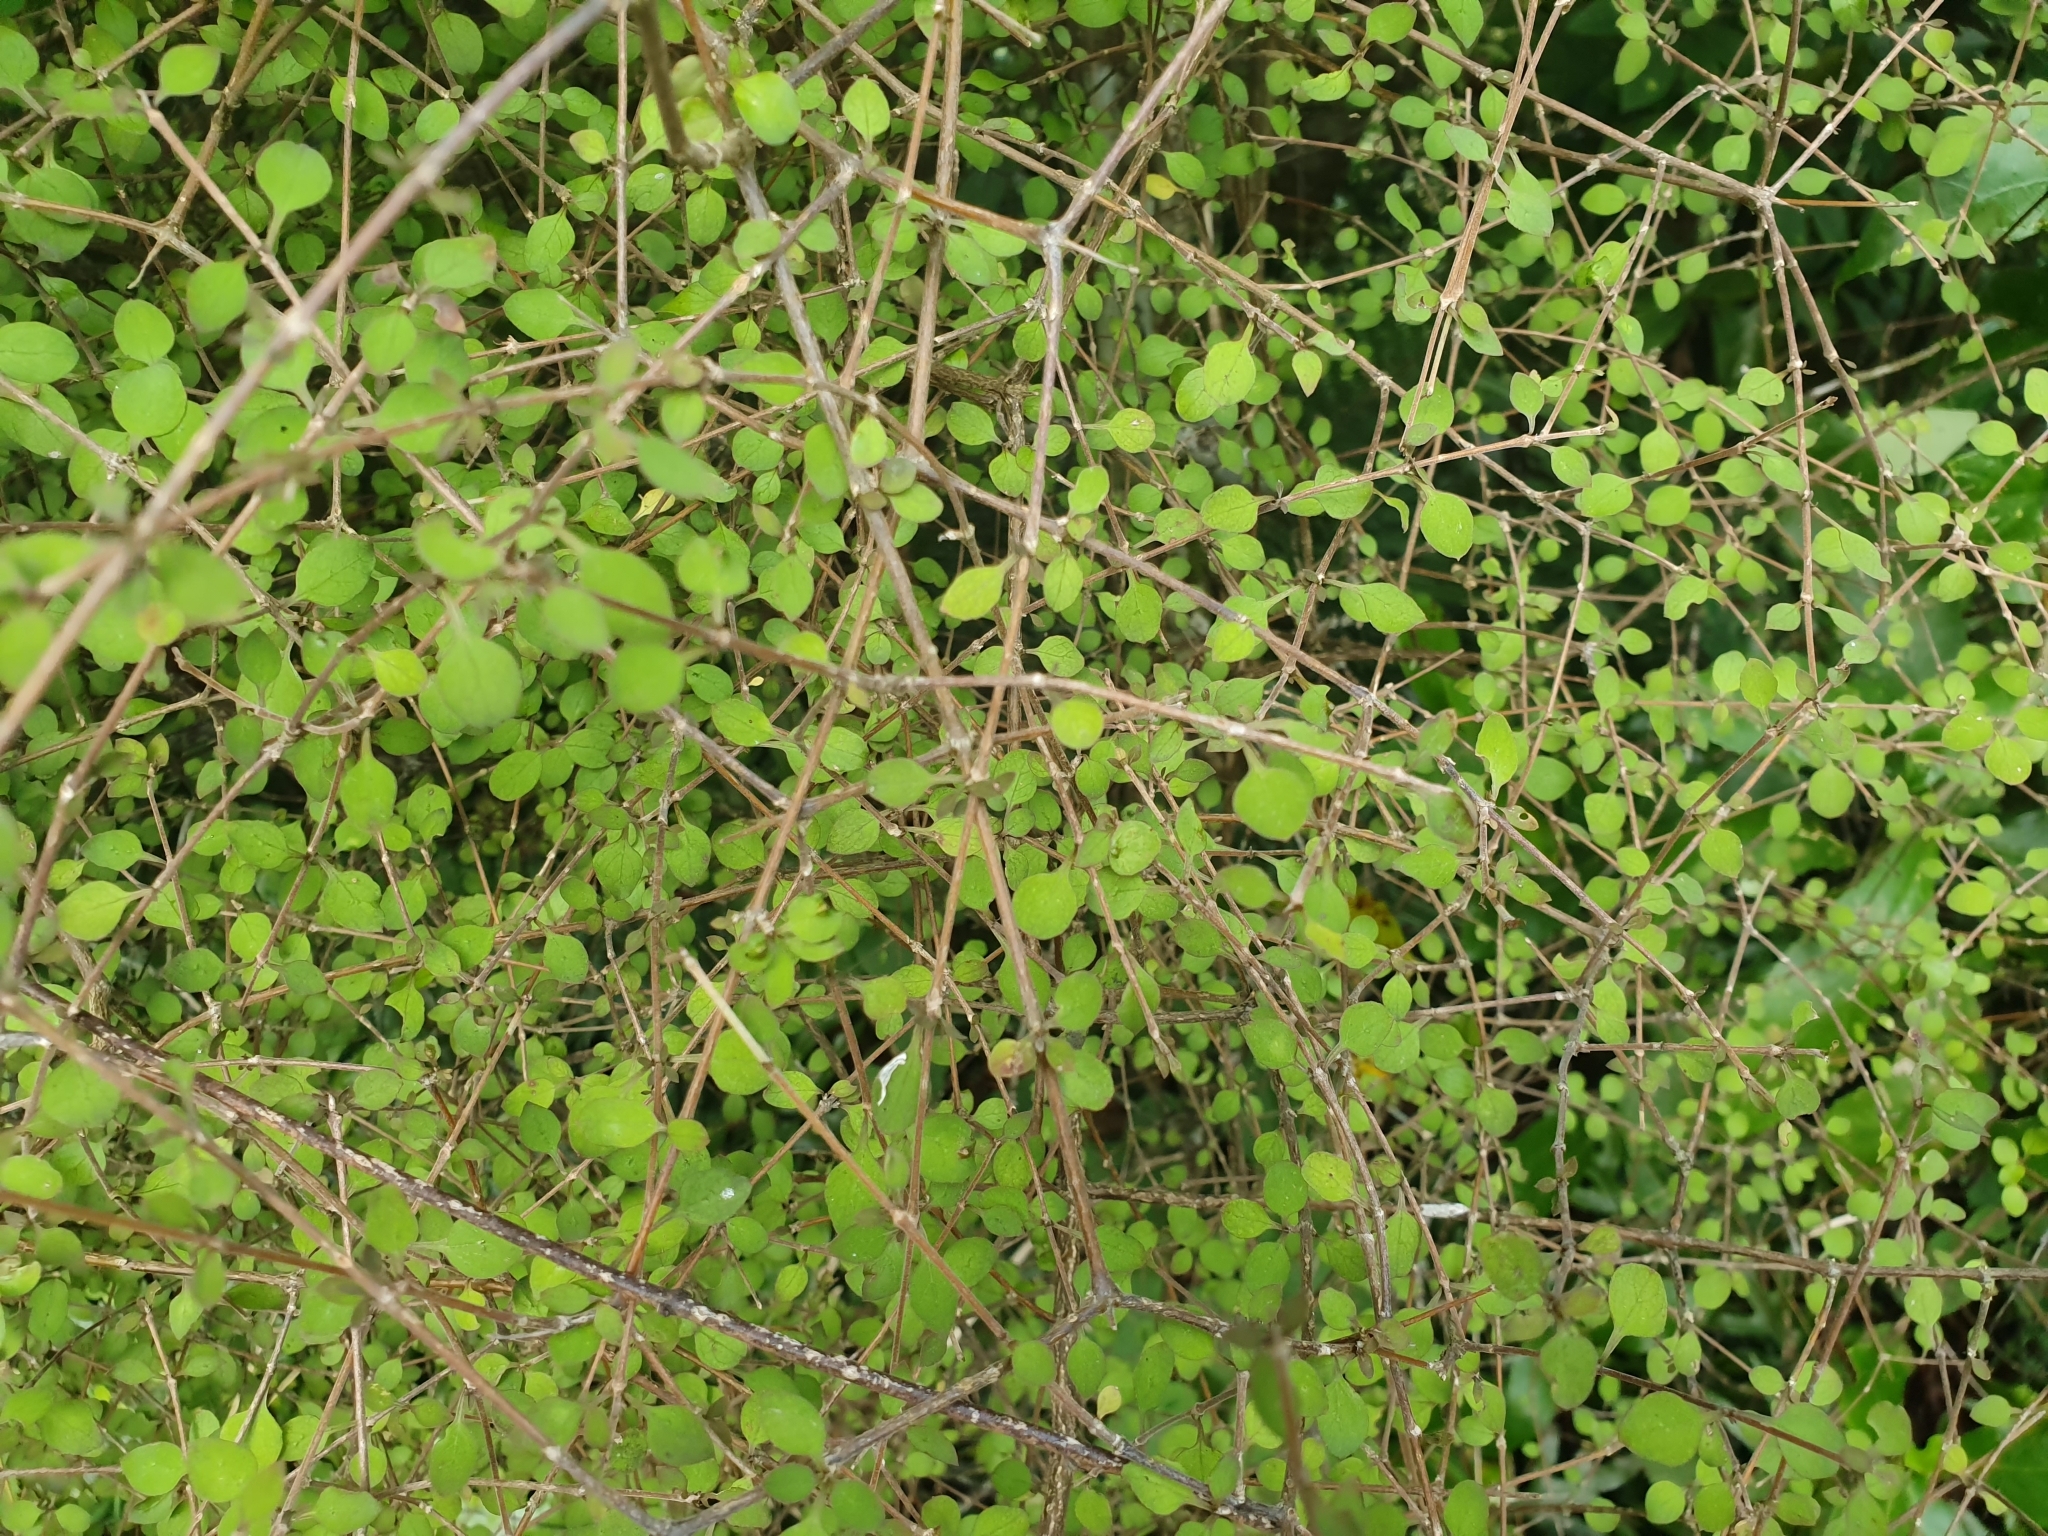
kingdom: Plantae
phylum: Tracheophyta
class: Magnoliopsida
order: Gentianales
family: Rubiaceae
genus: Coprosma
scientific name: Coprosma rubra
